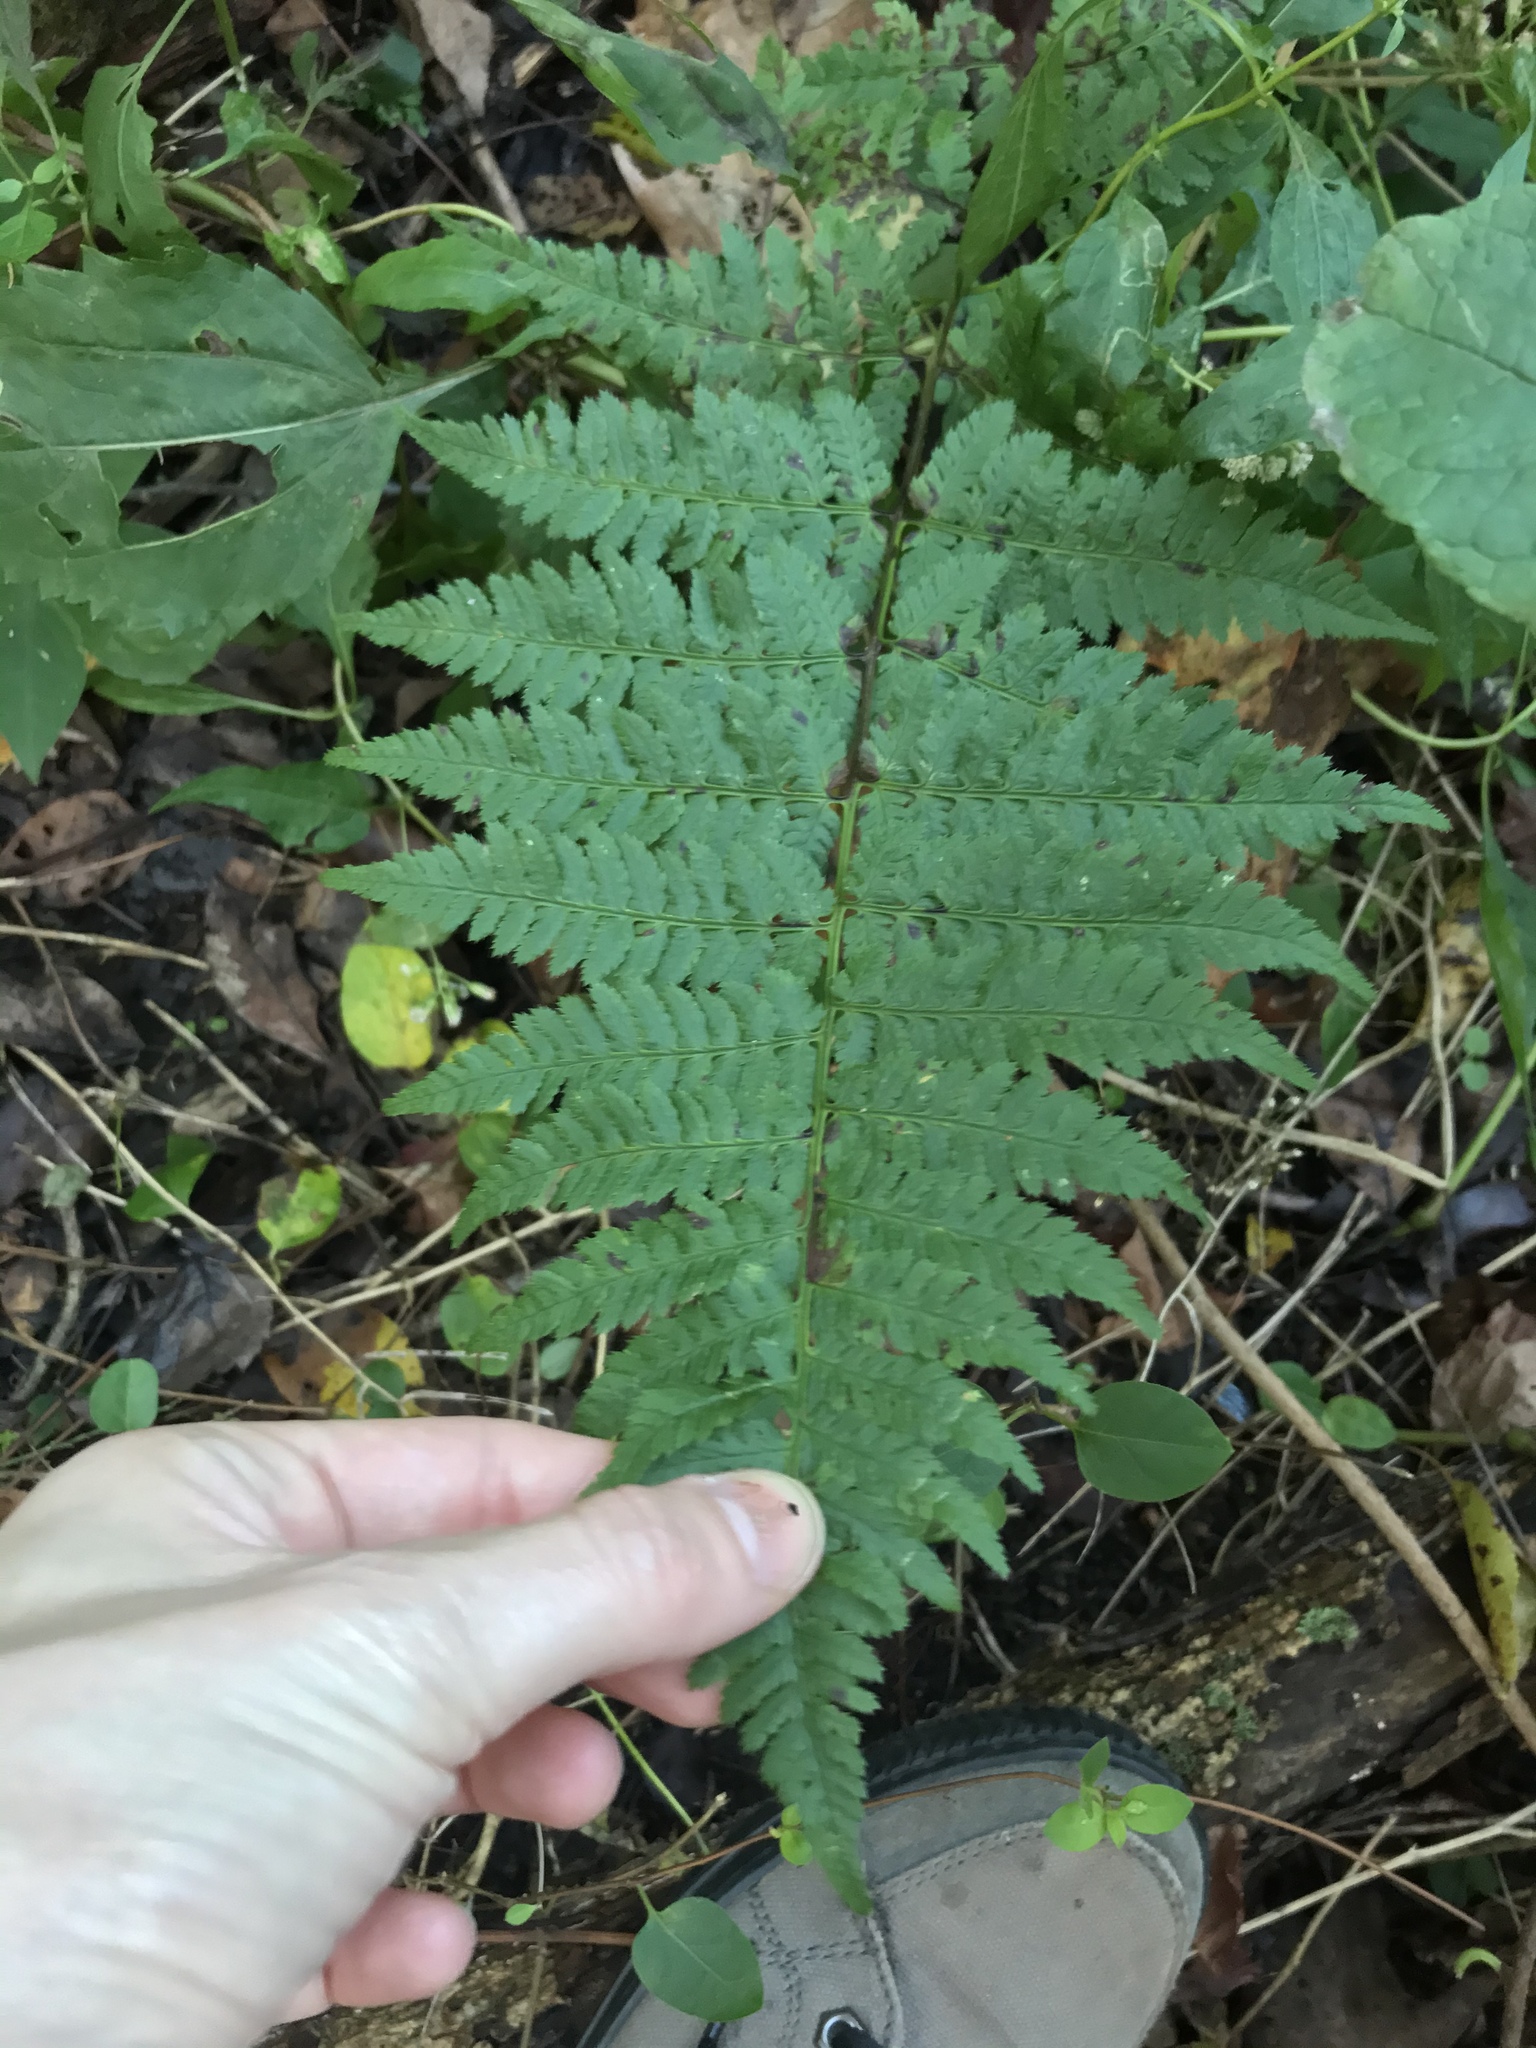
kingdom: Plantae
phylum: Tracheophyta
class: Polypodiopsida
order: Polypodiales
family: Dryopteridaceae
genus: Dryopteris
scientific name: Dryopteris carthusiana
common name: Narrow buckler-fern
